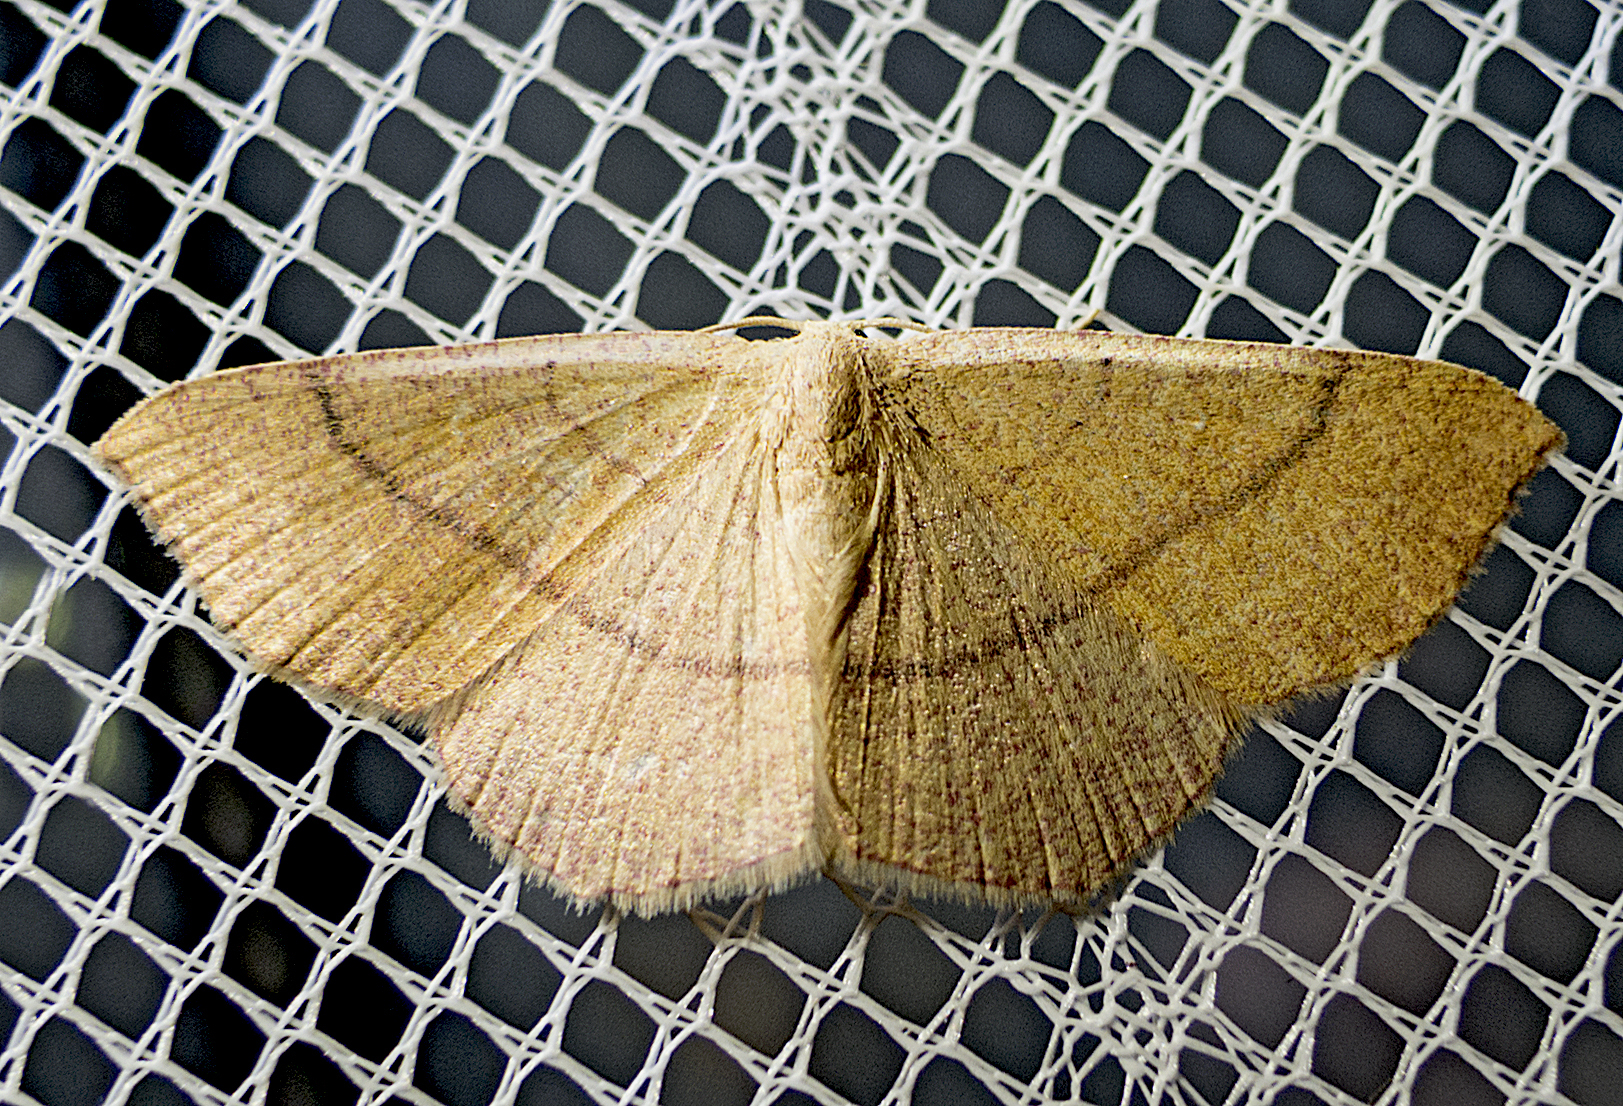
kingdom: Animalia
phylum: Arthropoda
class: Insecta
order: Lepidoptera
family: Geometridae
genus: Cyclophora
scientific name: Cyclophora suppunctaria
